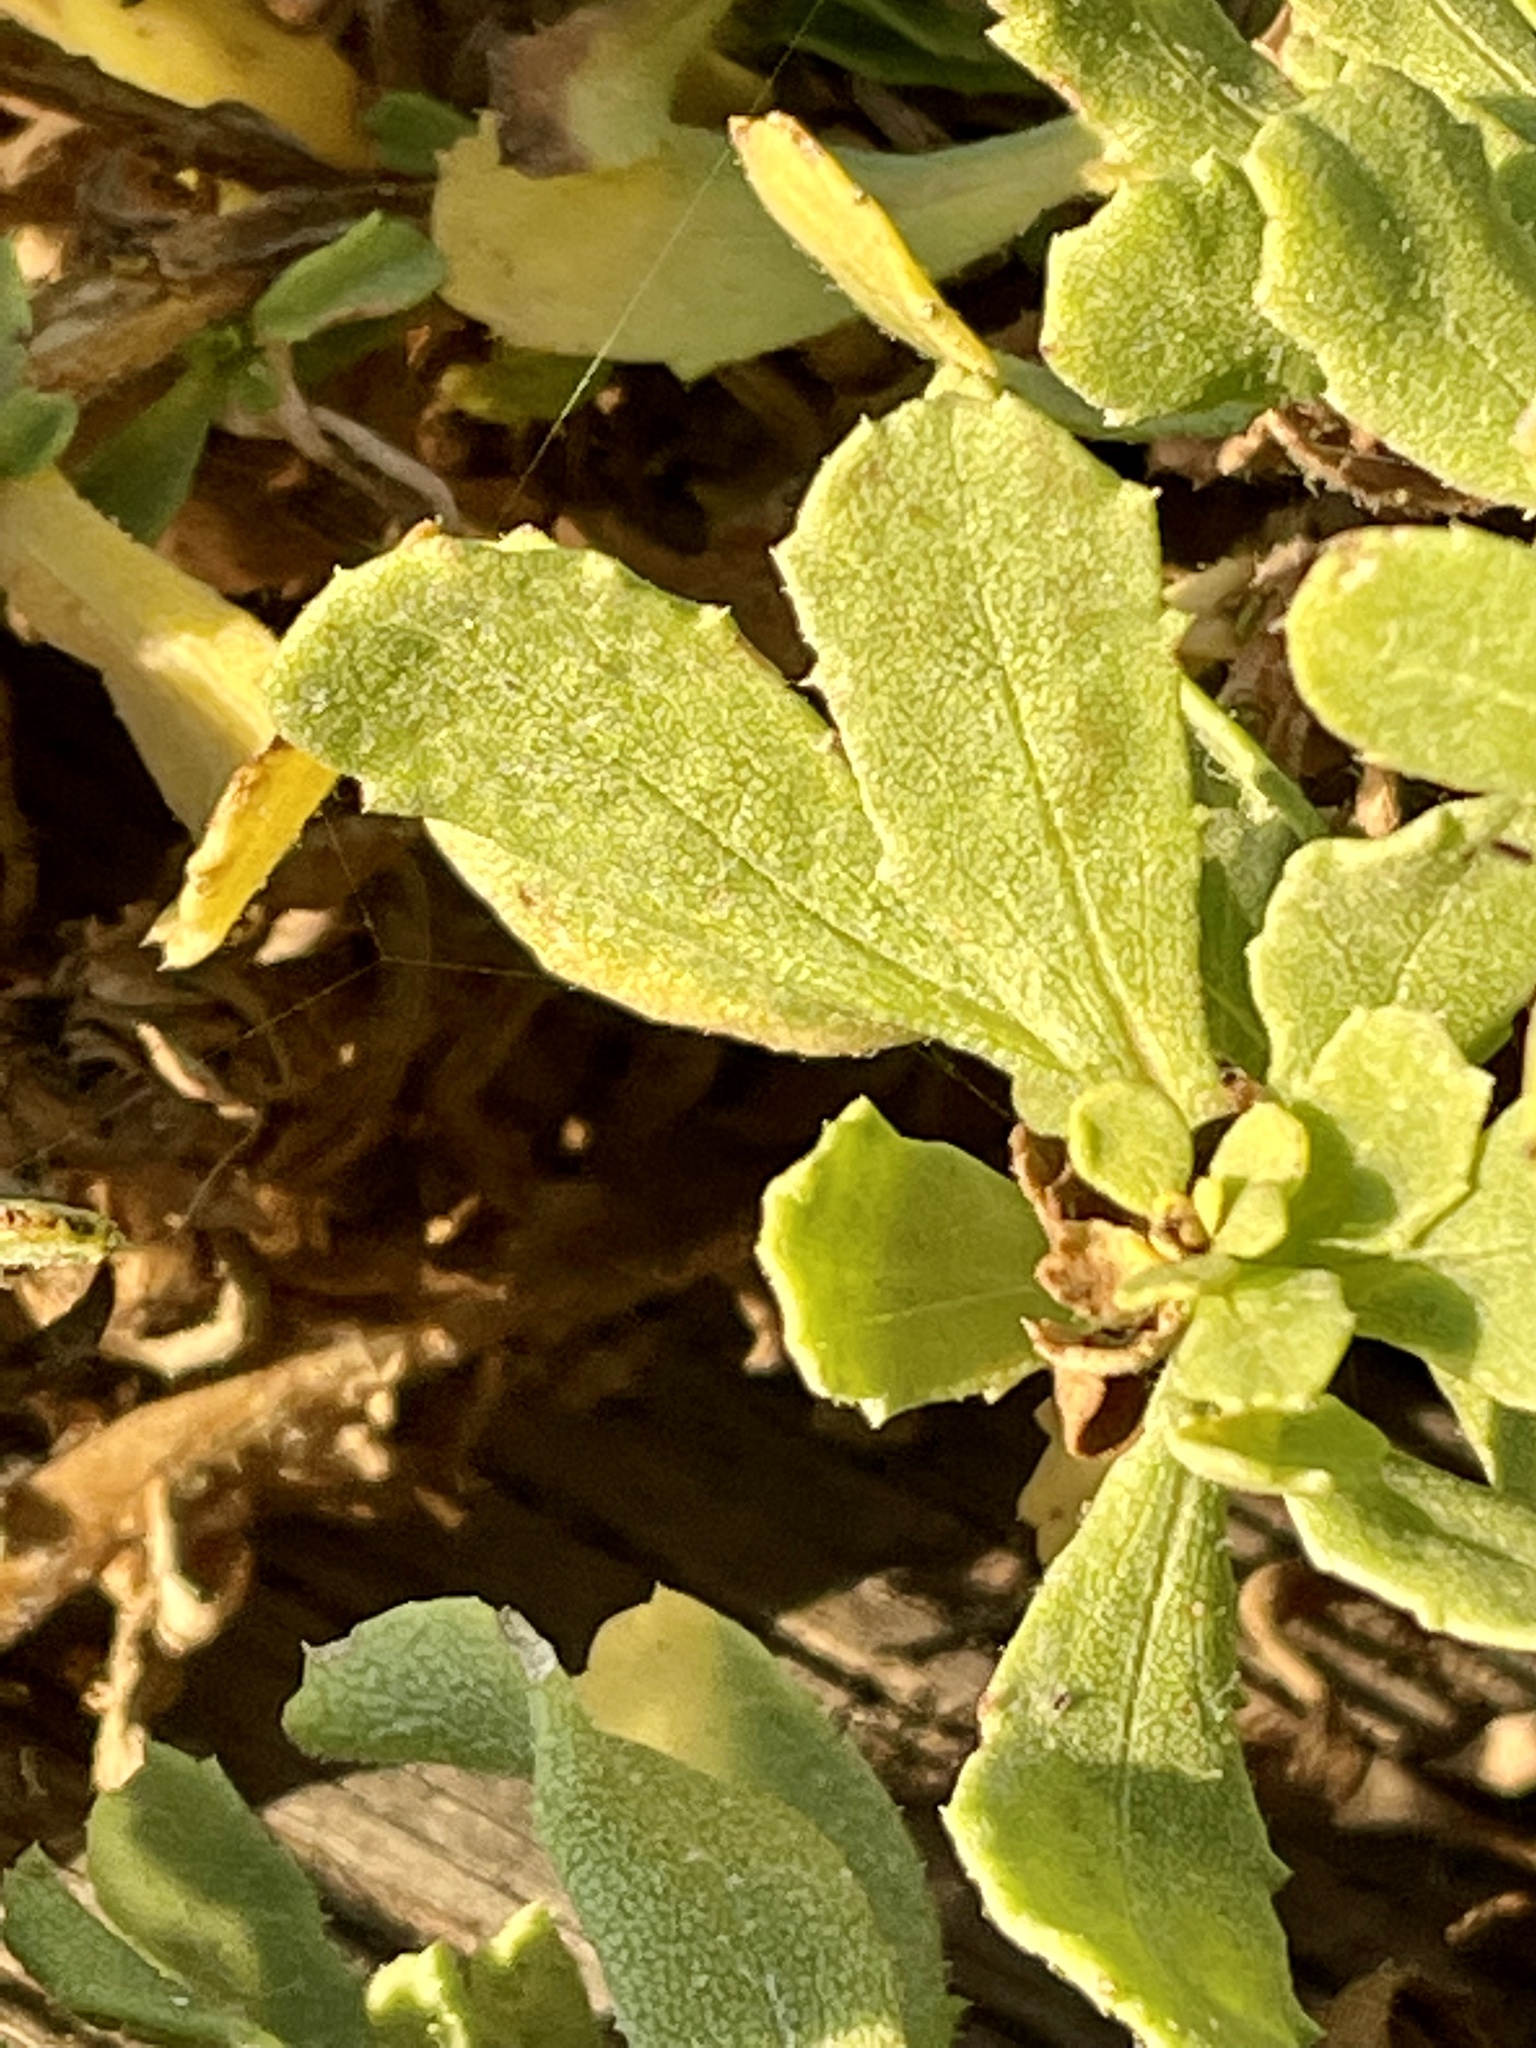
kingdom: Plantae
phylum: Tracheophyta
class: Magnoliopsida
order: Asterales
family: Asteraceae
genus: Isocoma
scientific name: Isocoma menziesii
